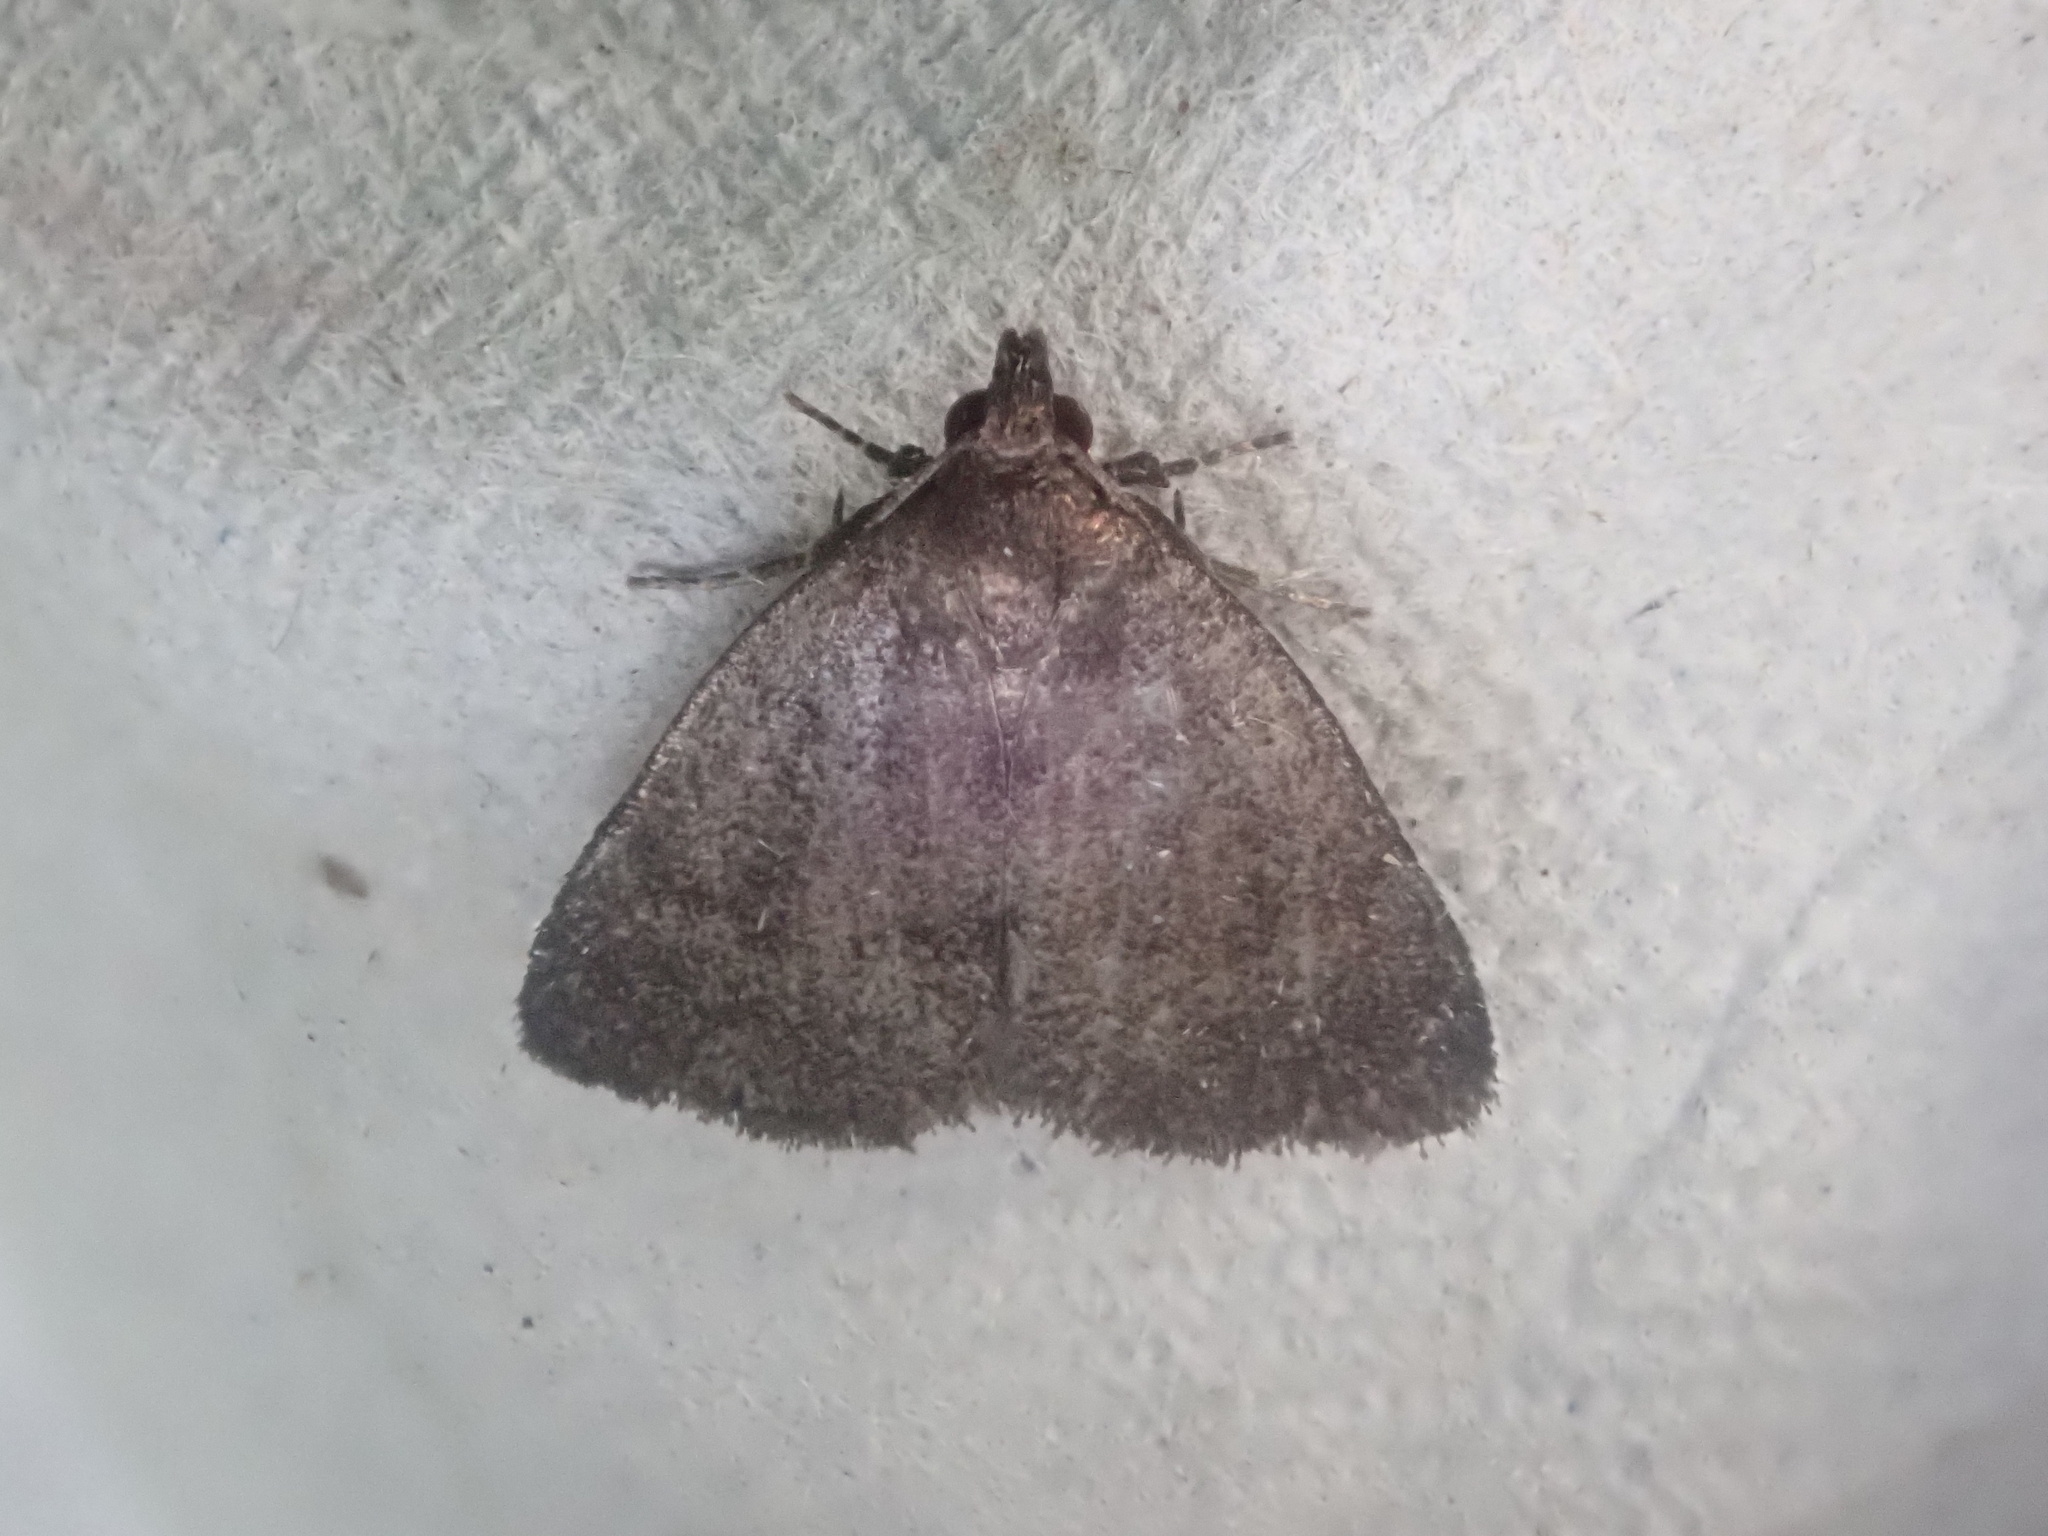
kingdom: Animalia
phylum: Arthropoda
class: Insecta
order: Lepidoptera
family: Erebidae
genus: Idia
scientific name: Idia rotundalis
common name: Rotund idia moth
